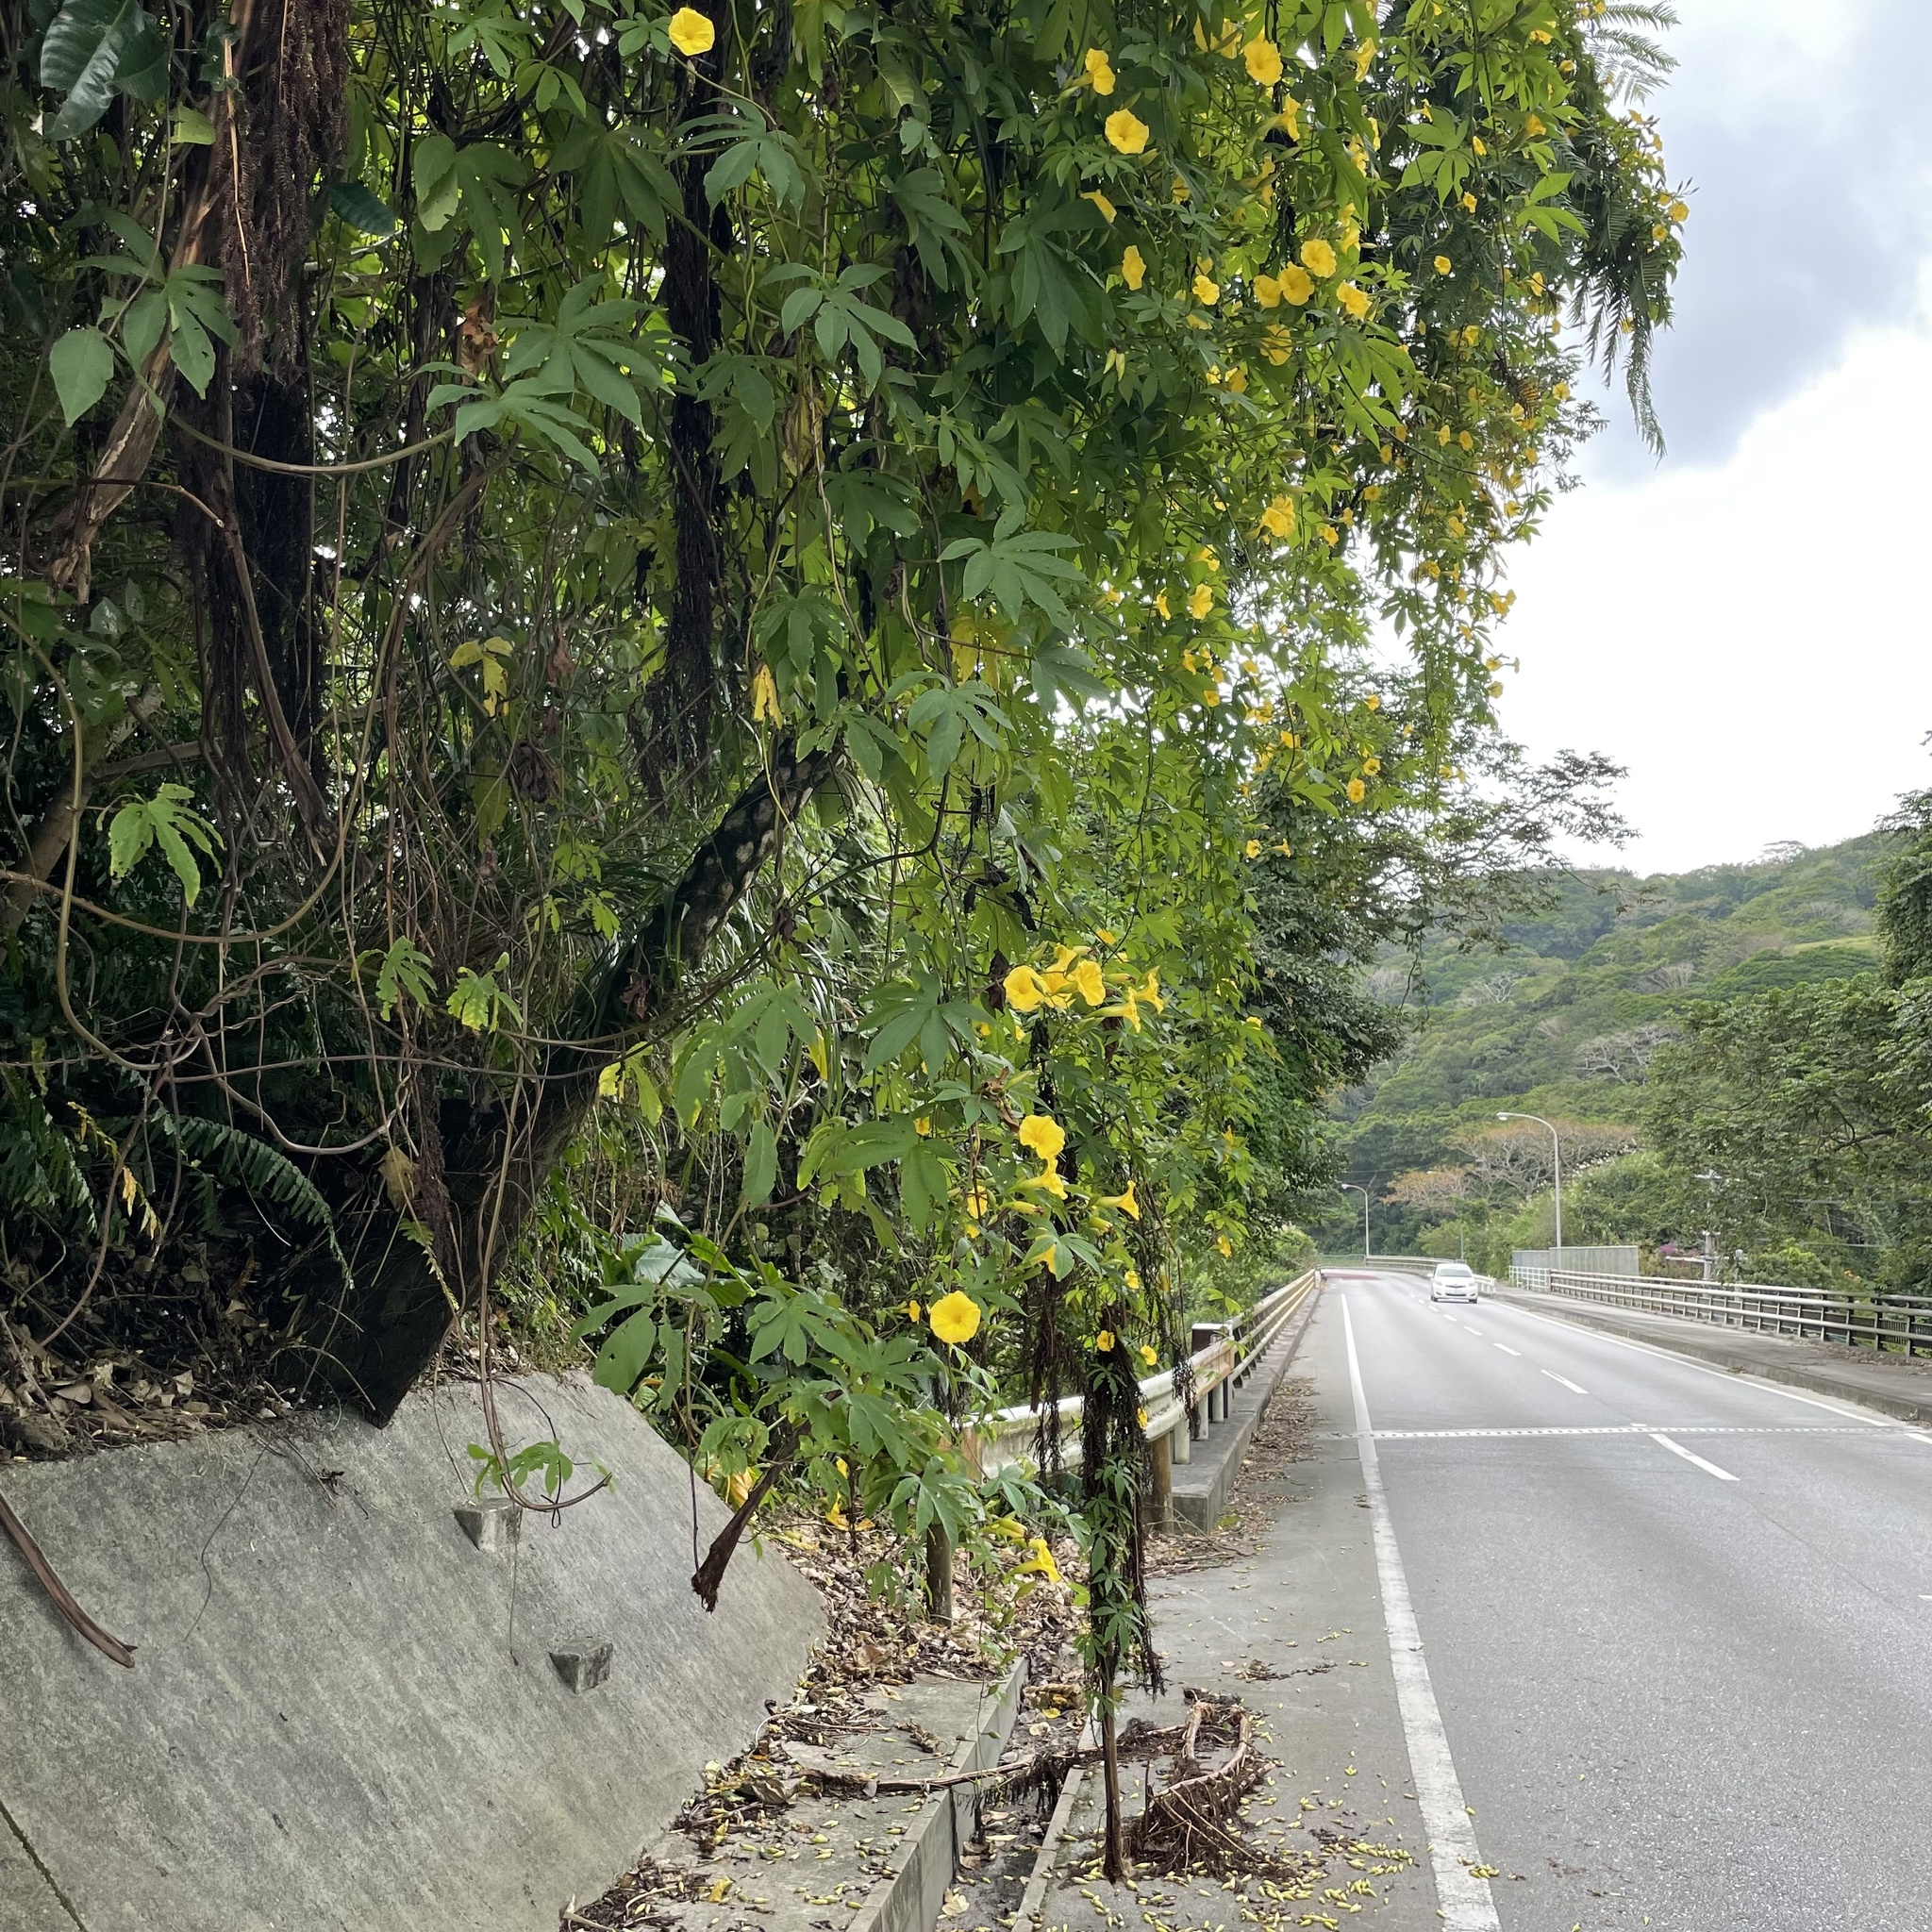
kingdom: Plantae
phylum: Tracheophyta
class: Magnoliopsida
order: Solanales
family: Convolvulaceae
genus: Distimake
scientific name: Distimake tuberosus
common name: Spanish arborvine
